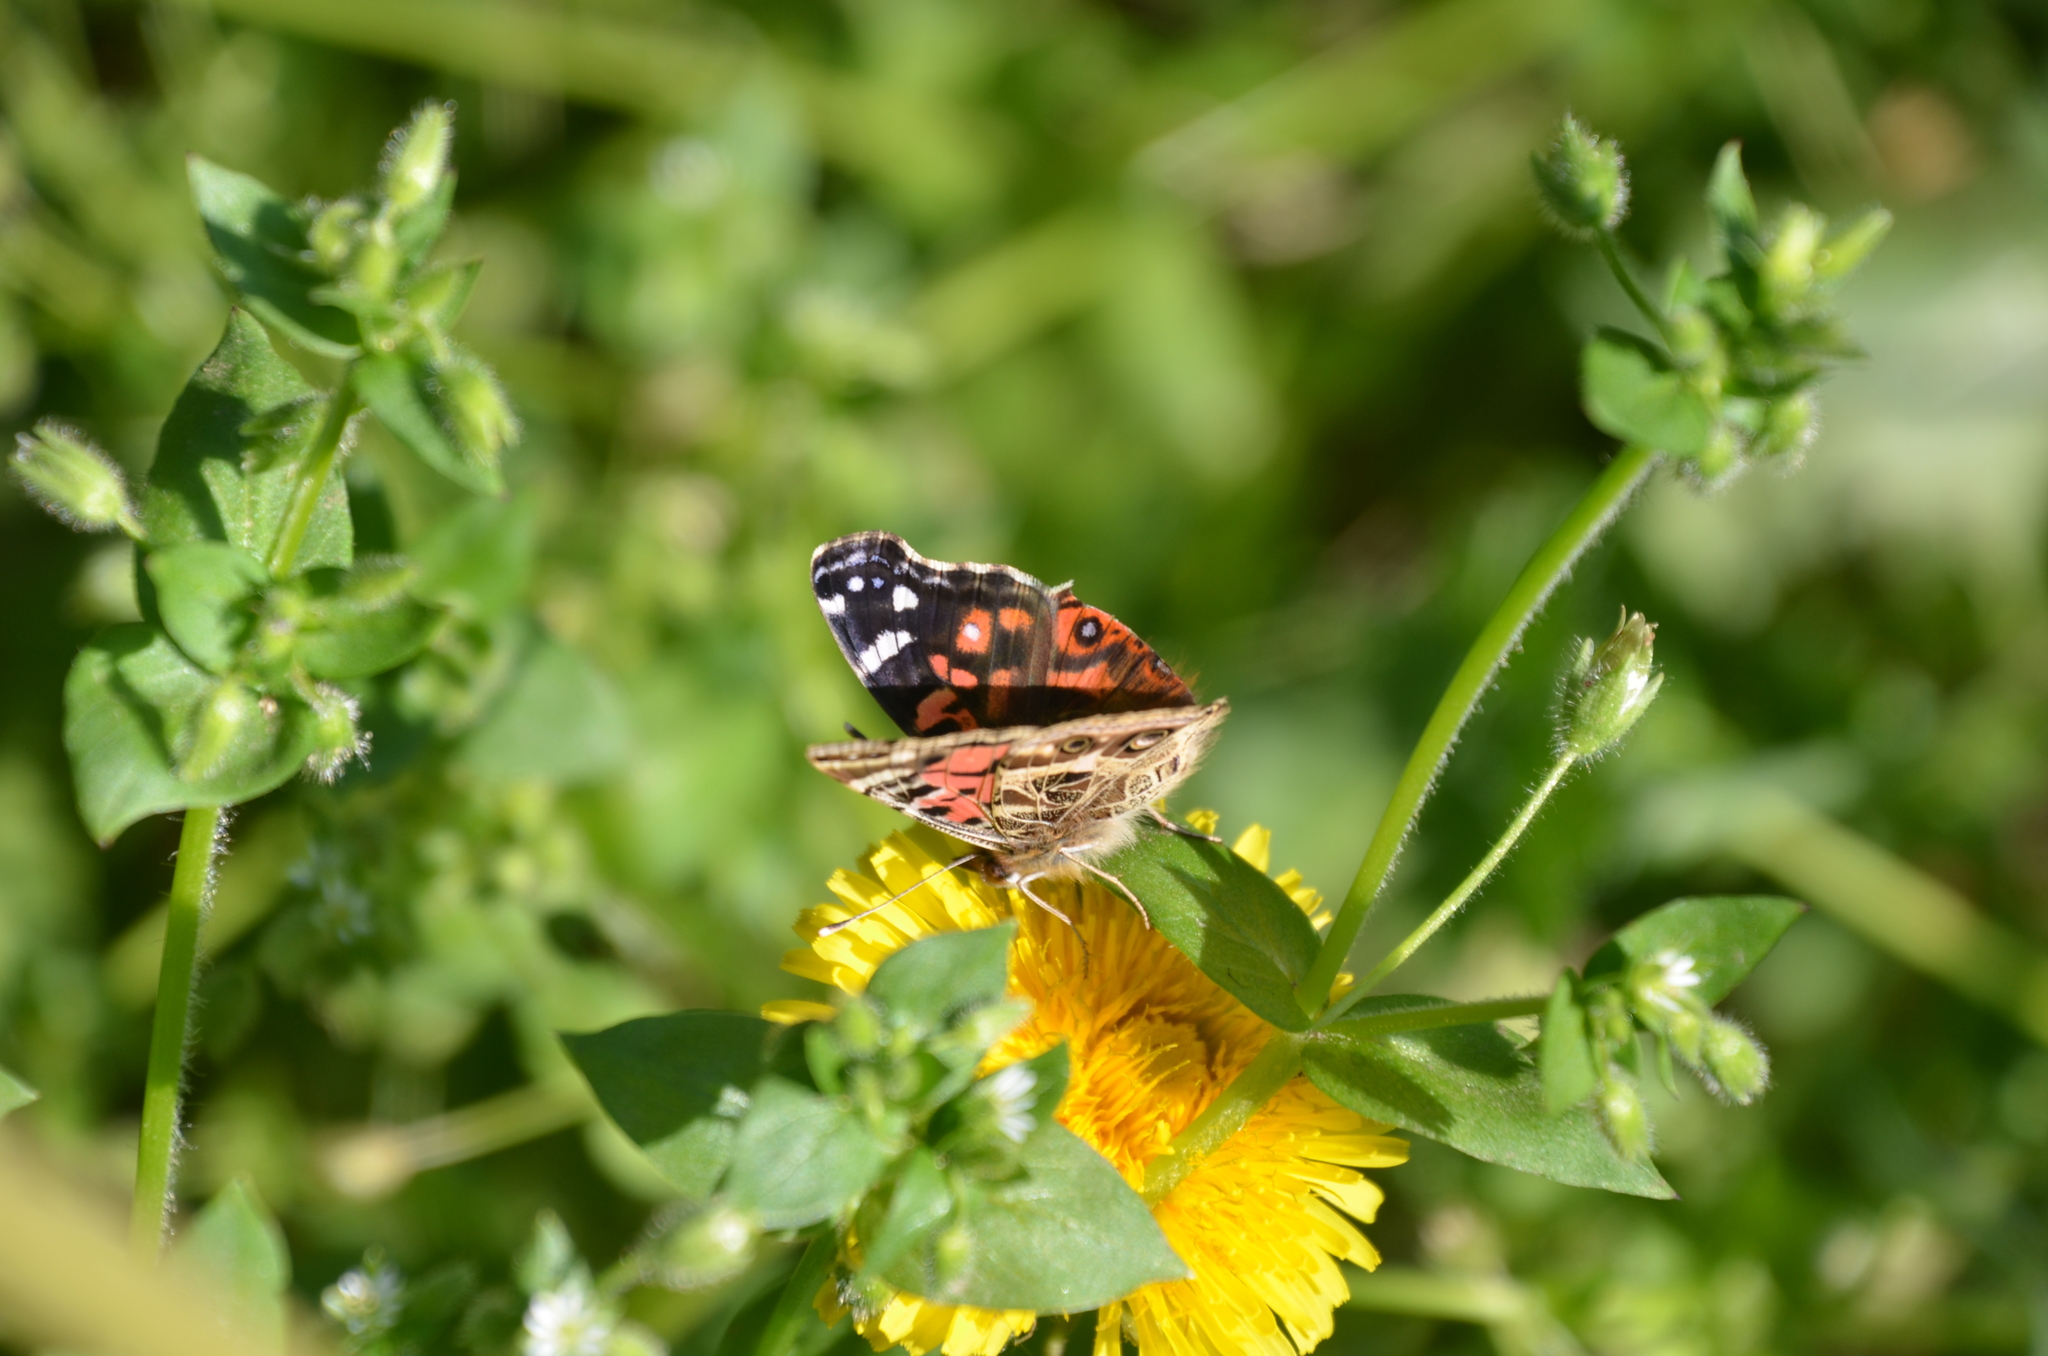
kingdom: Animalia
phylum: Arthropoda
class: Insecta
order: Lepidoptera
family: Nymphalidae
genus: Vanessa
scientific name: Vanessa braziliensis
